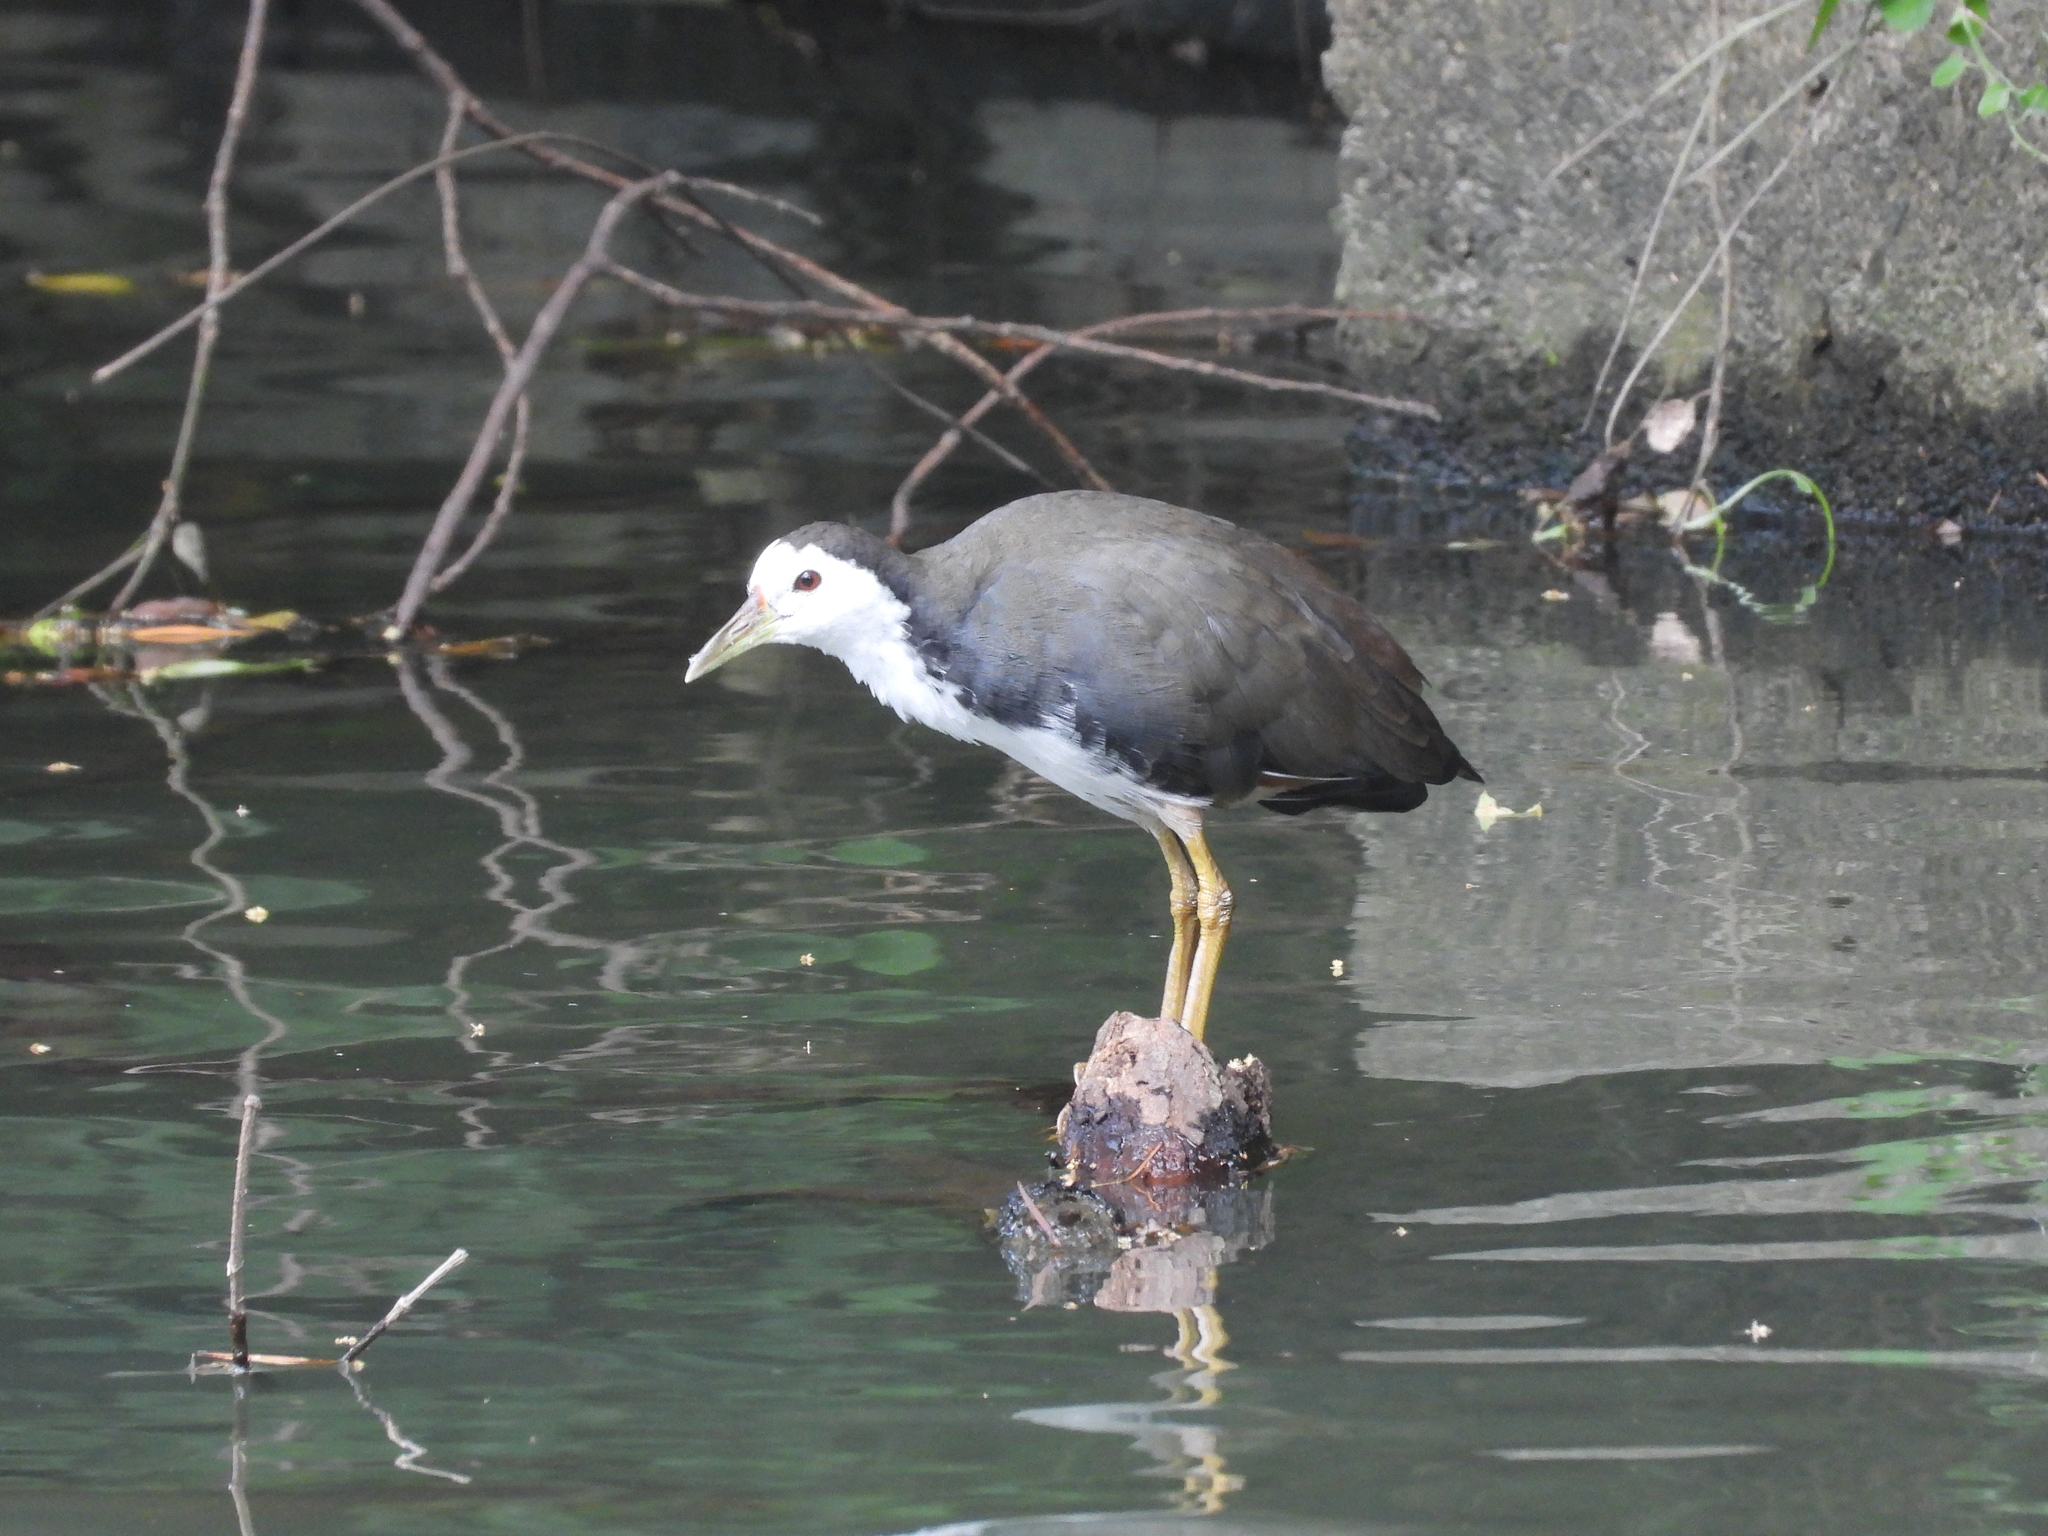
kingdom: Animalia
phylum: Chordata
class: Aves
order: Gruiformes
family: Rallidae
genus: Amaurornis
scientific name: Amaurornis phoenicurus
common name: White-breasted waterhen
